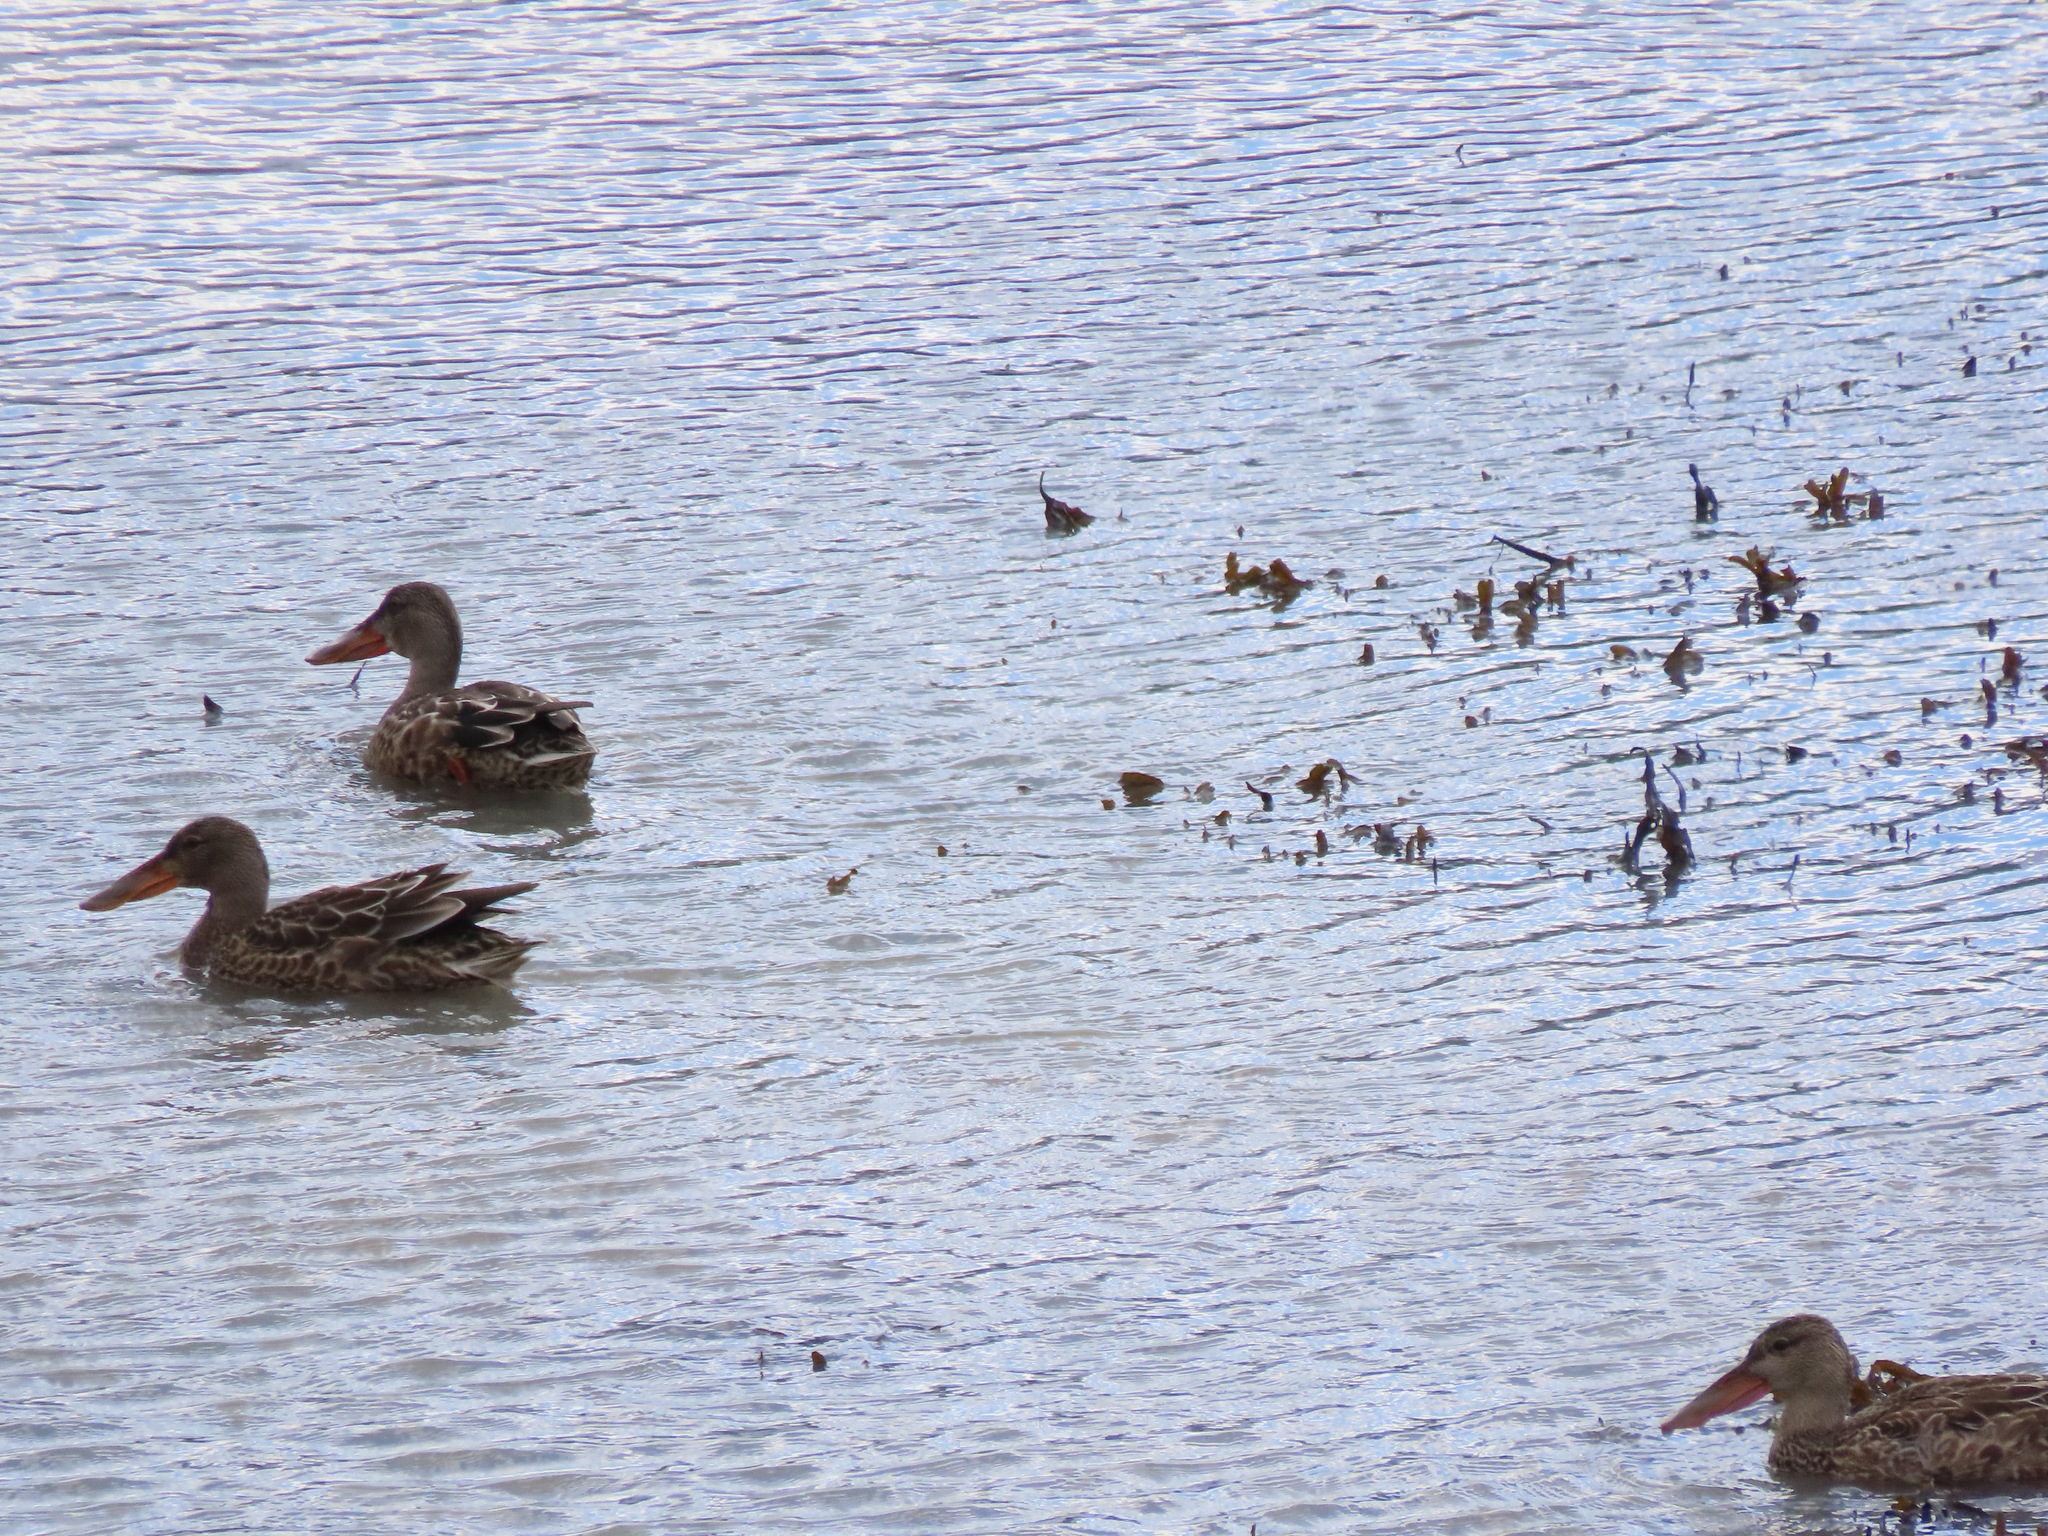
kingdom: Animalia
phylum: Chordata
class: Aves
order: Anseriformes
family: Anatidae
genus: Spatula
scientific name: Spatula clypeata
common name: Northern shoveler
